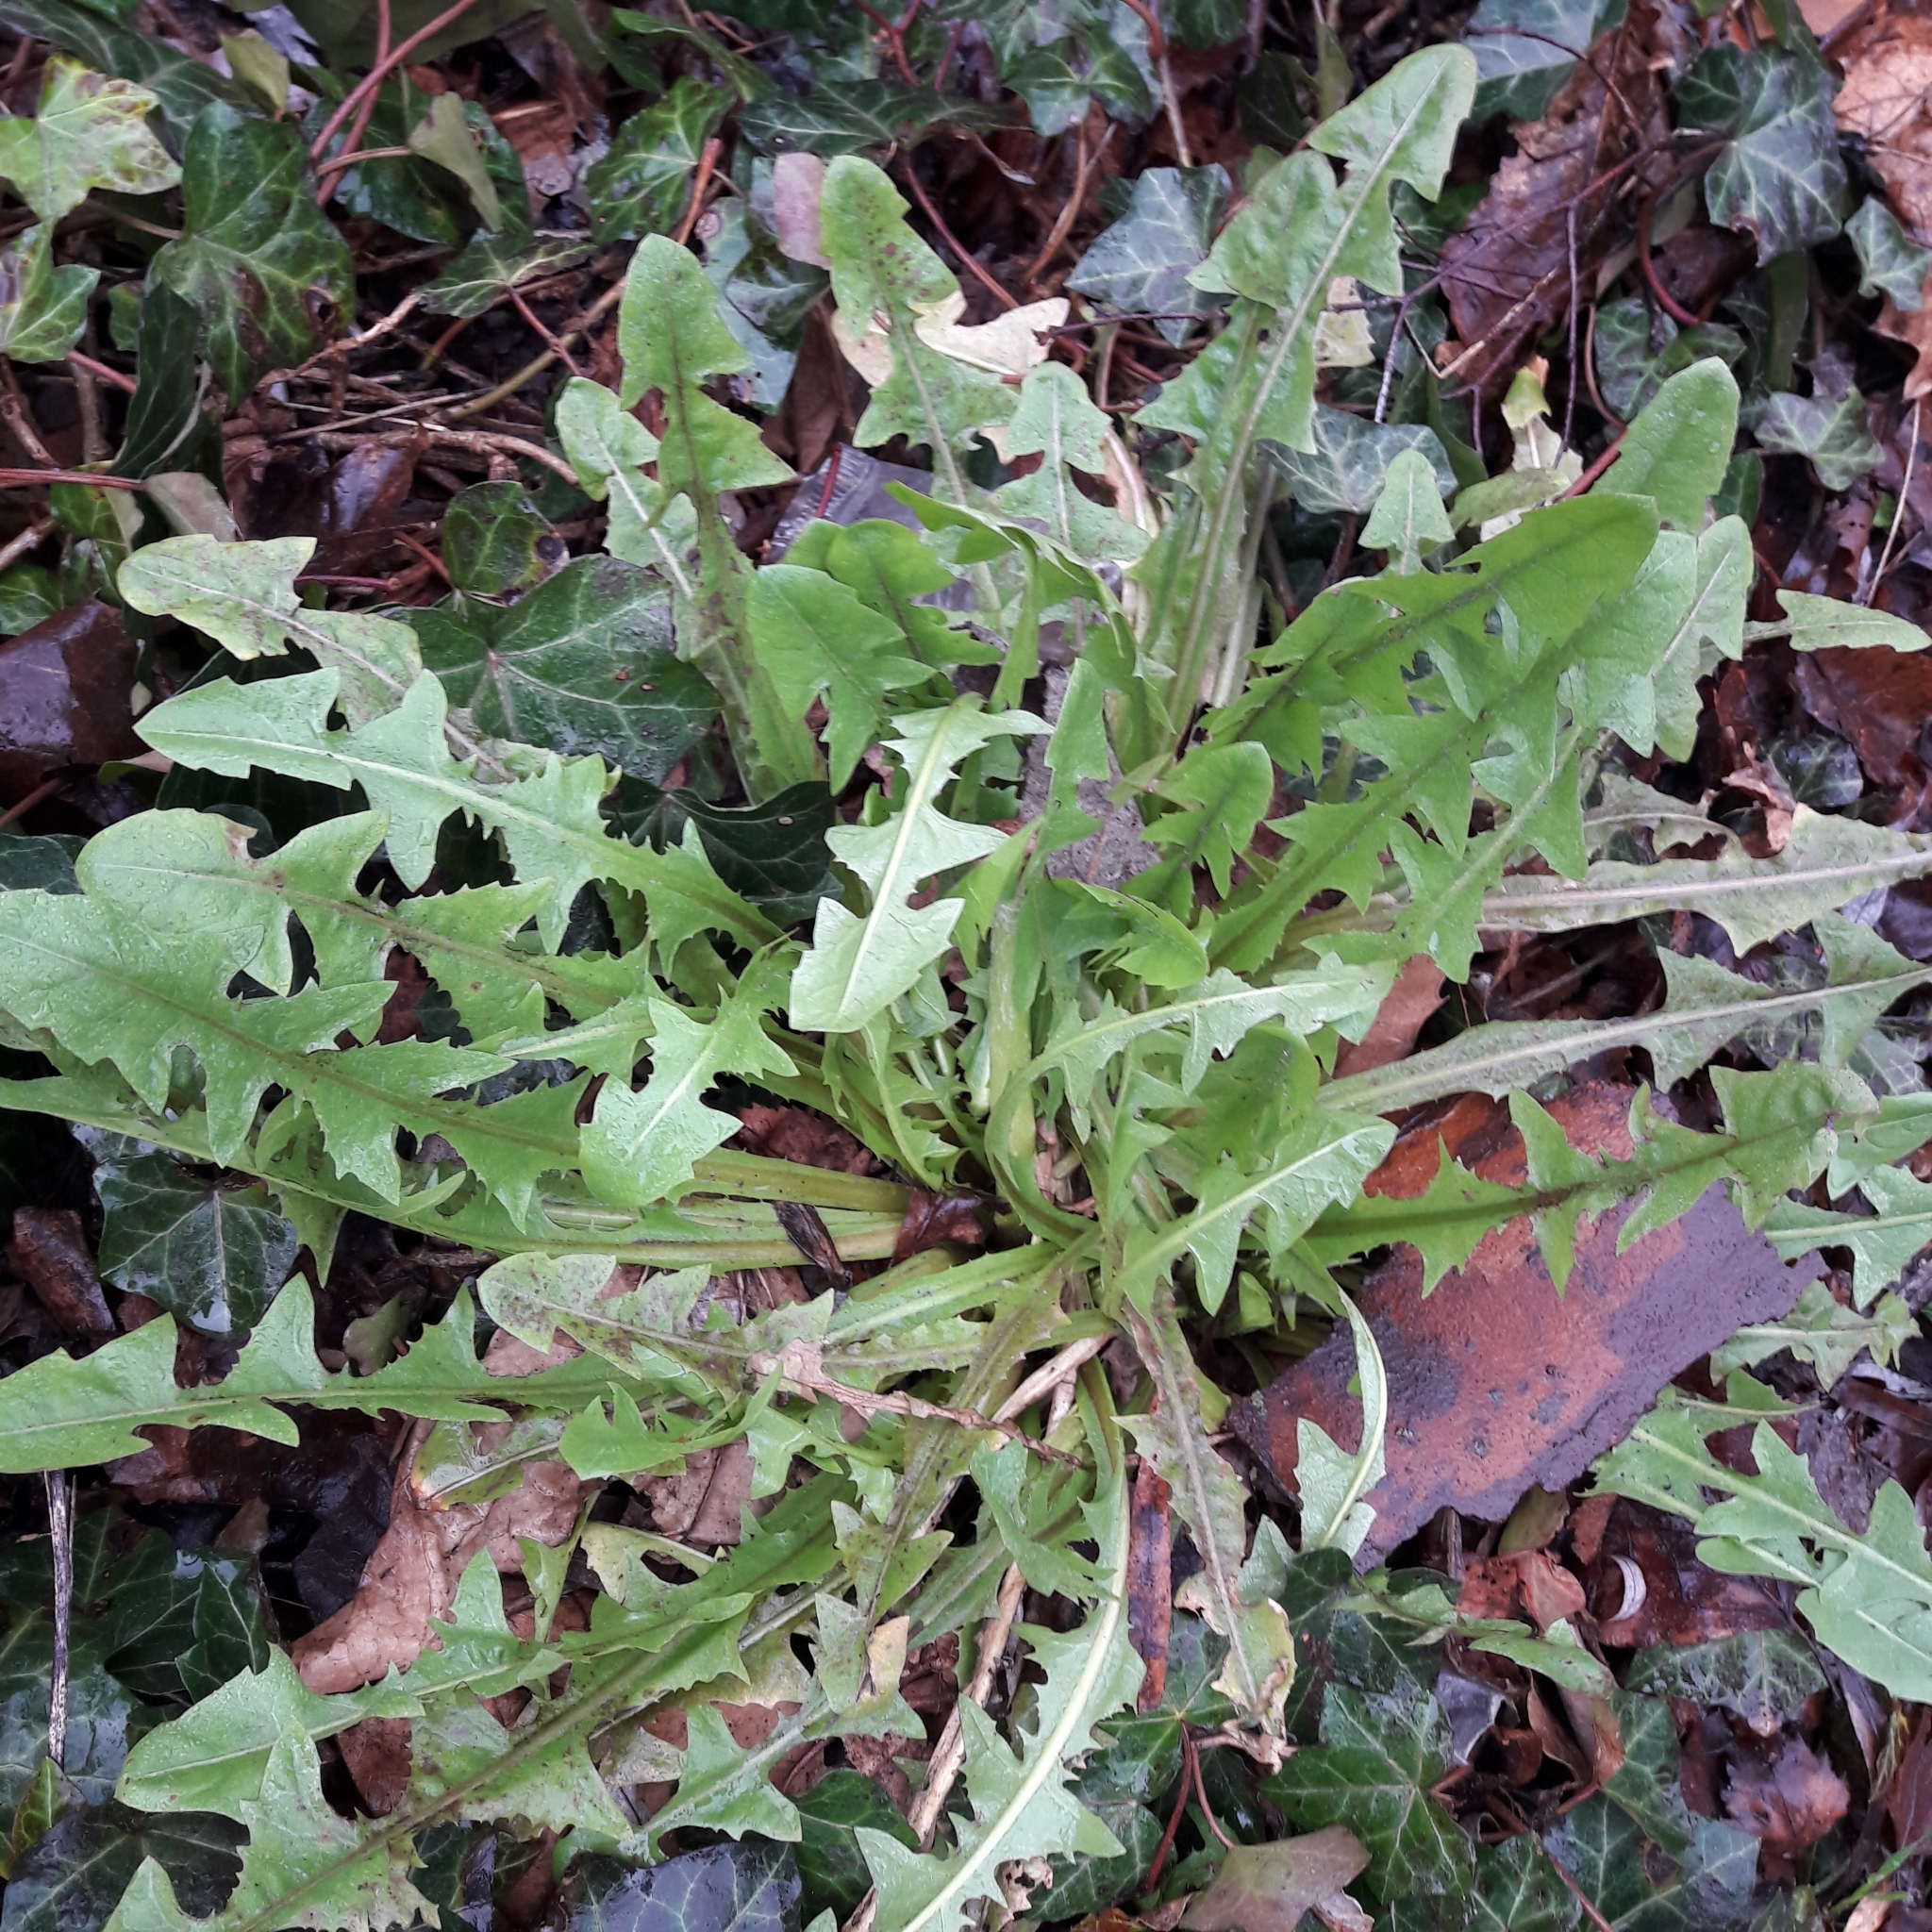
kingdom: Plantae
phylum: Tracheophyta
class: Magnoliopsida
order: Asterales
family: Asteraceae
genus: Taraxacum
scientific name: Taraxacum officinale
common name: Common dandelion
